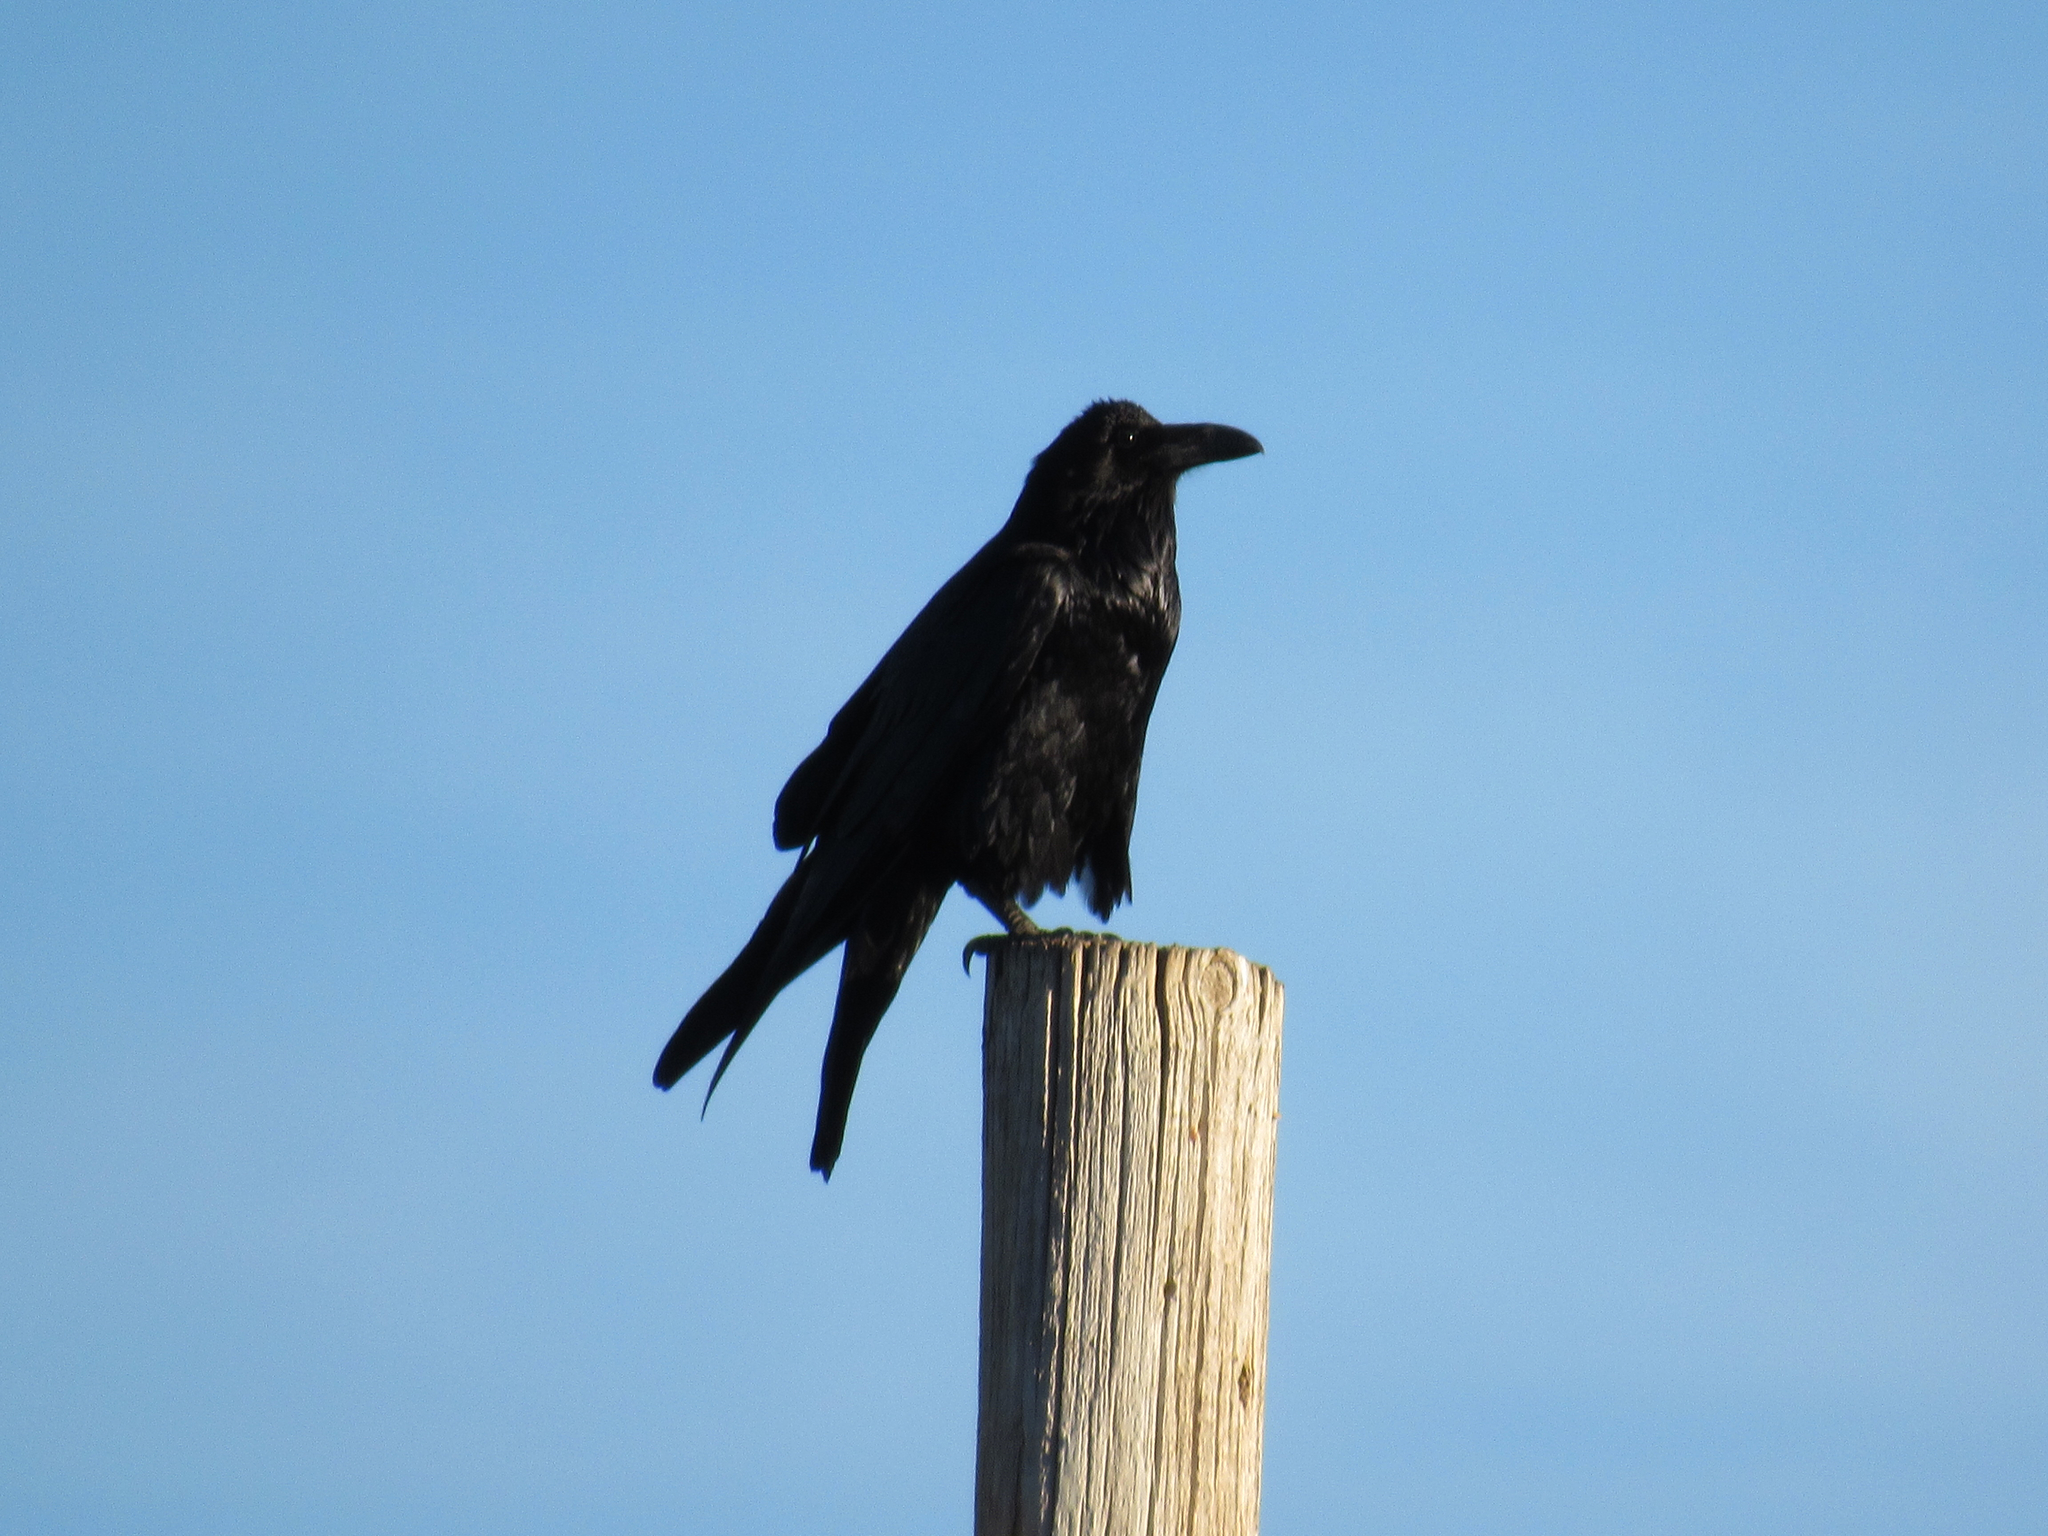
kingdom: Animalia
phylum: Chordata
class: Aves
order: Passeriformes
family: Corvidae
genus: Corvus
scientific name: Corvus corax
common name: Common raven
